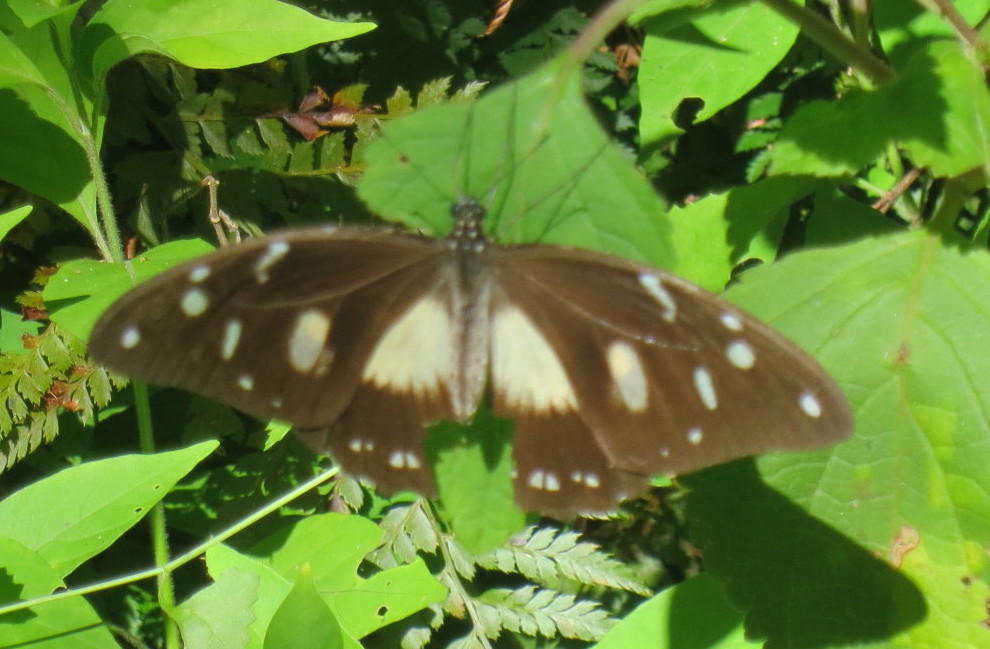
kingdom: Animalia
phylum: Arthropoda
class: Insecta
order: Lepidoptera
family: Papilionidae
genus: Papilio
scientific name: Papilio dardanus
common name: Flying handkerchief
